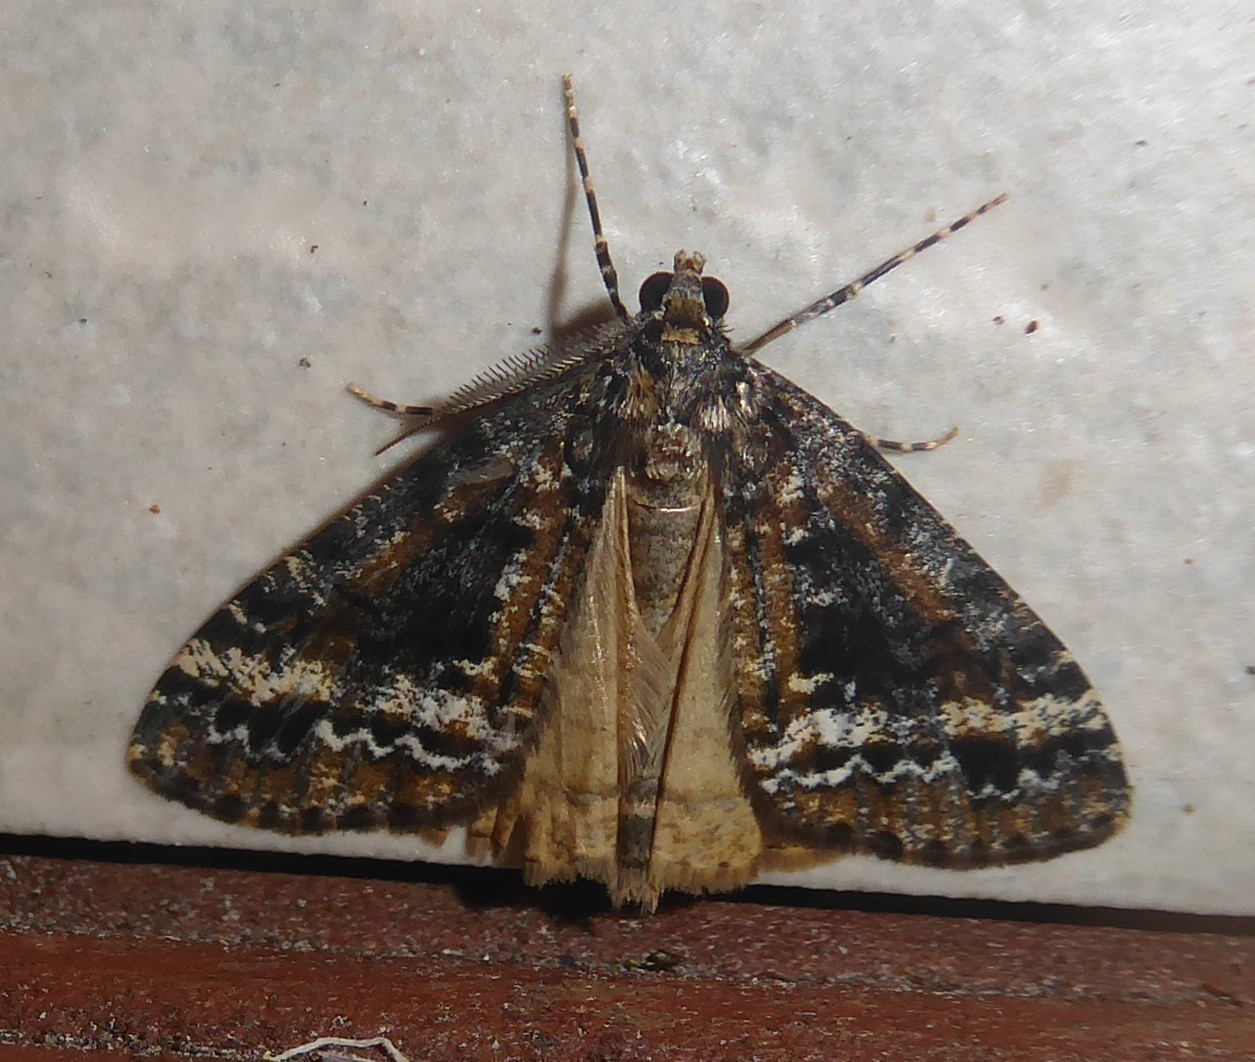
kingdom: Animalia
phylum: Arthropoda
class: Insecta
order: Lepidoptera
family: Geometridae
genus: Pseudocoremia
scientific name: Pseudocoremia leucelaea
